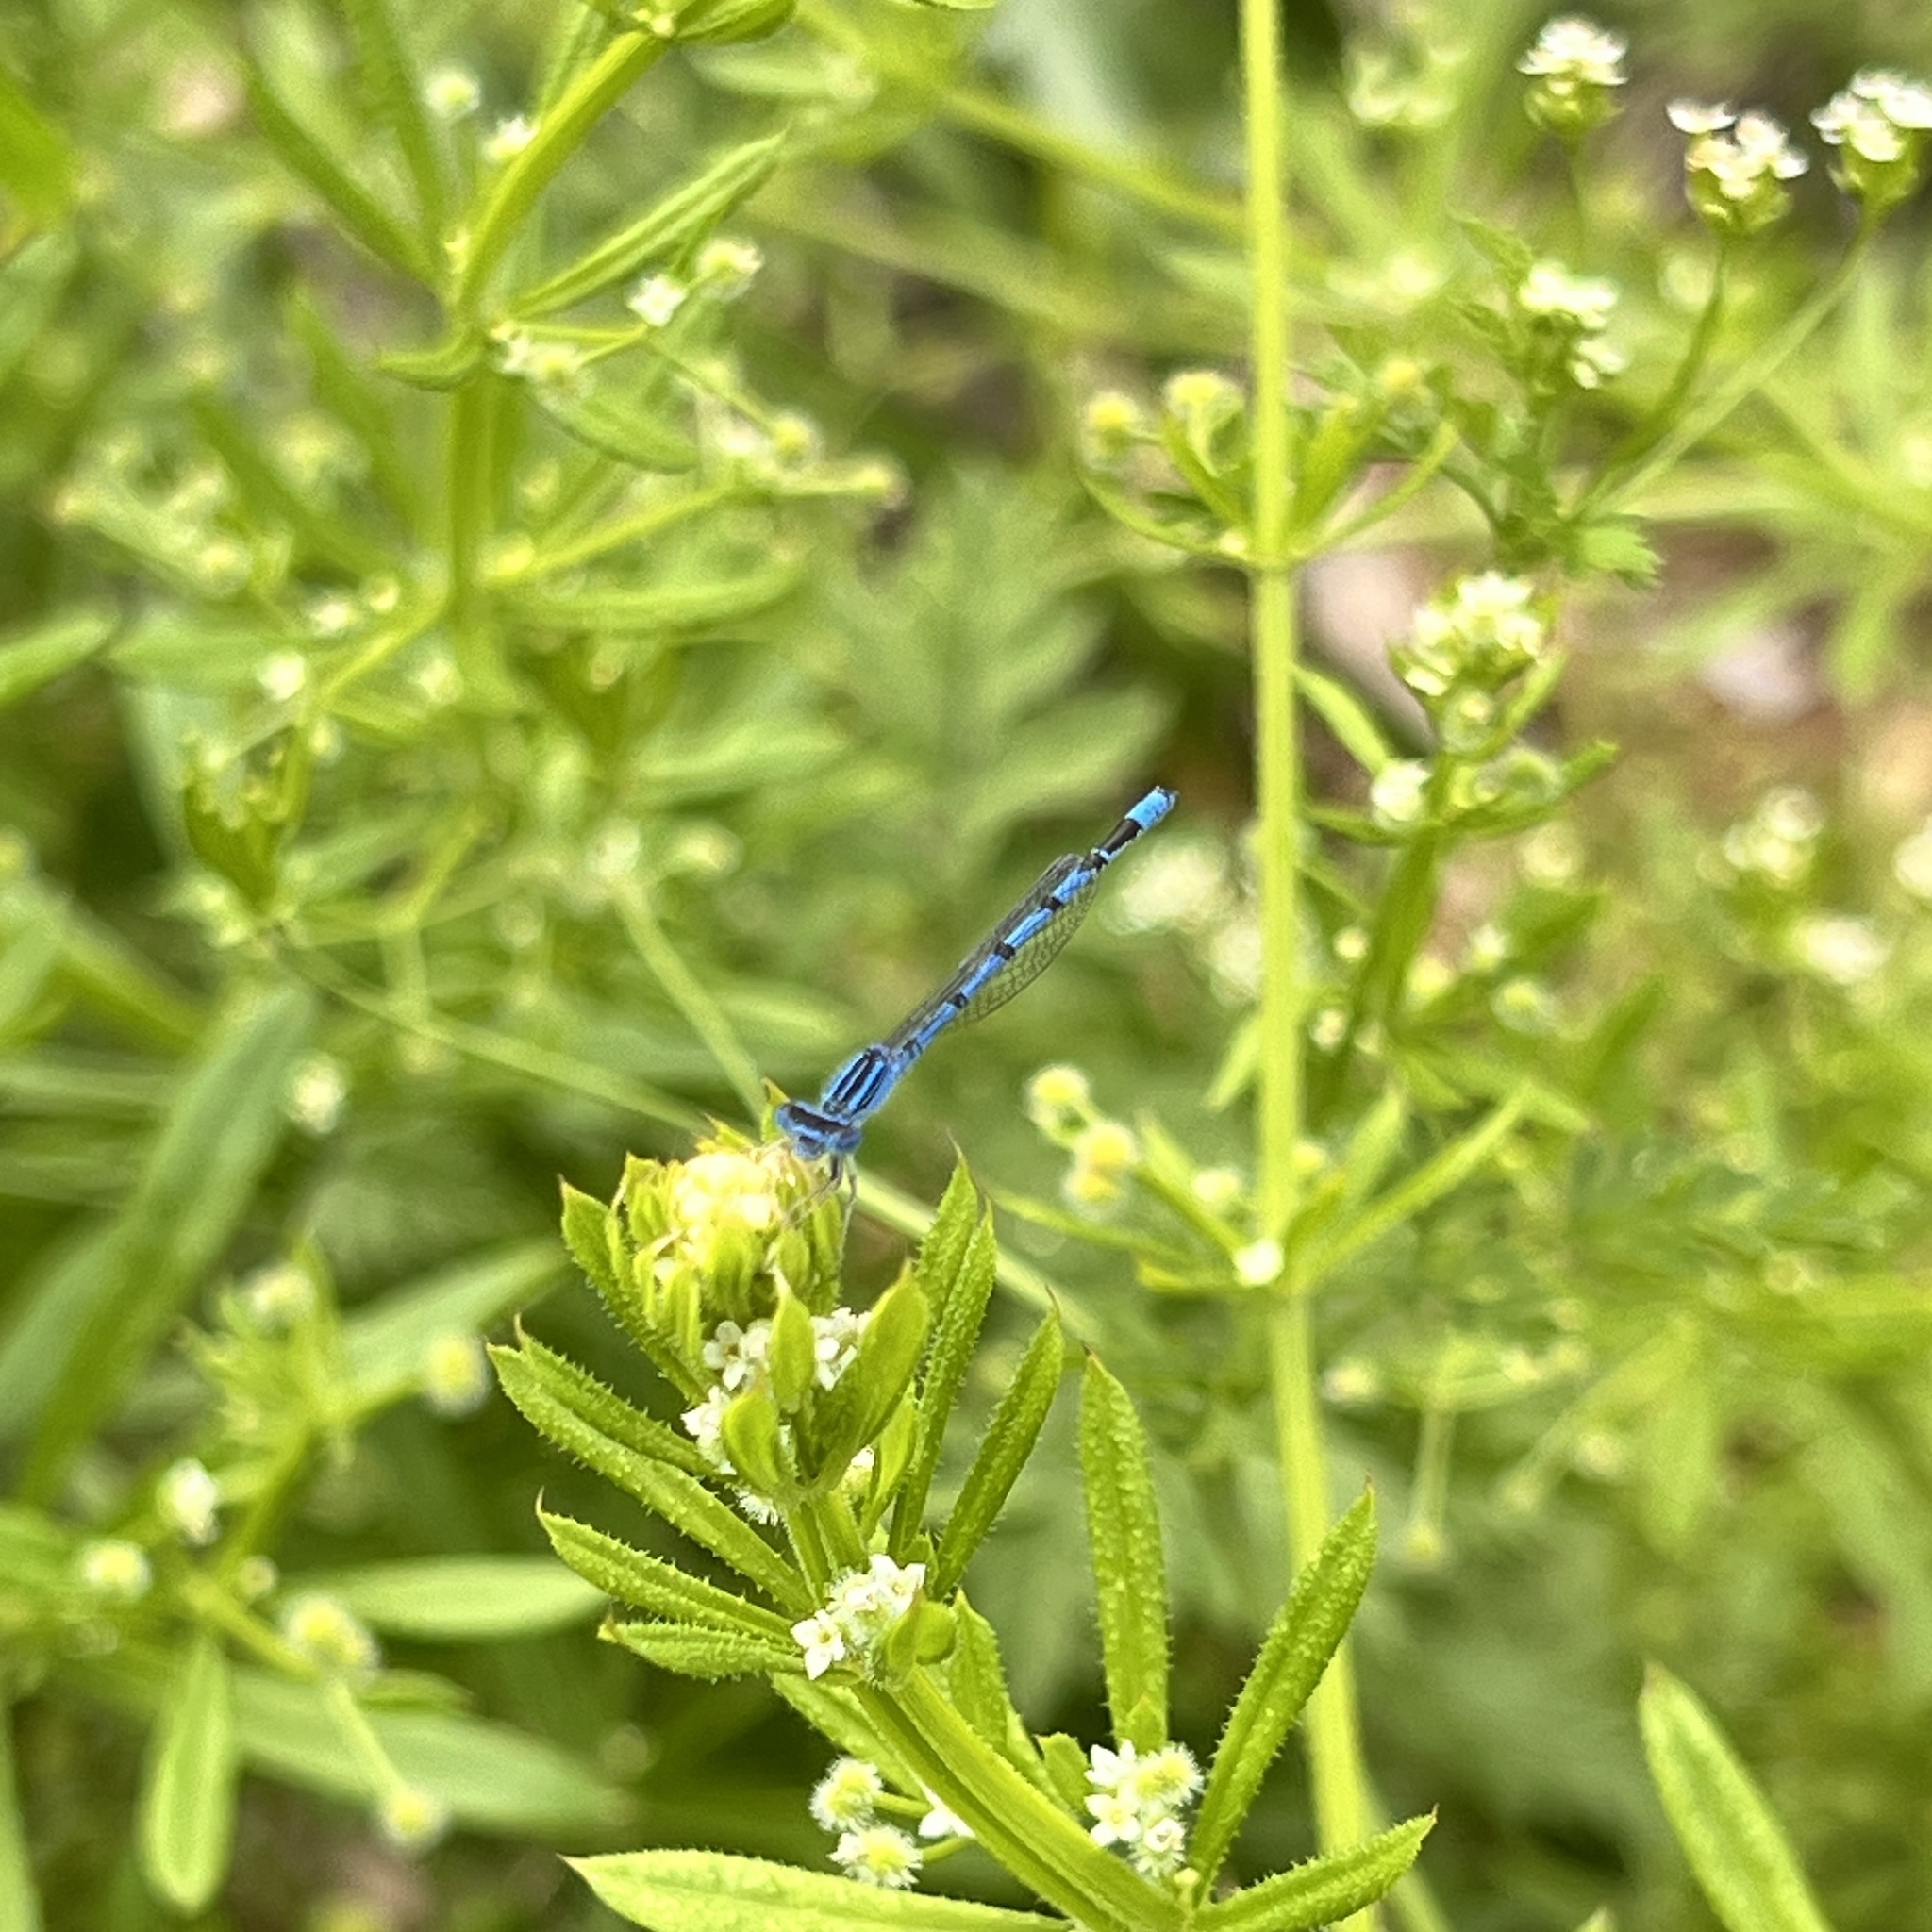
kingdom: Animalia
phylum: Arthropoda
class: Insecta
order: Odonata
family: Coenagrionidae
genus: Enallagma
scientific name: Enallagma basidens
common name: Double-striped bluet
